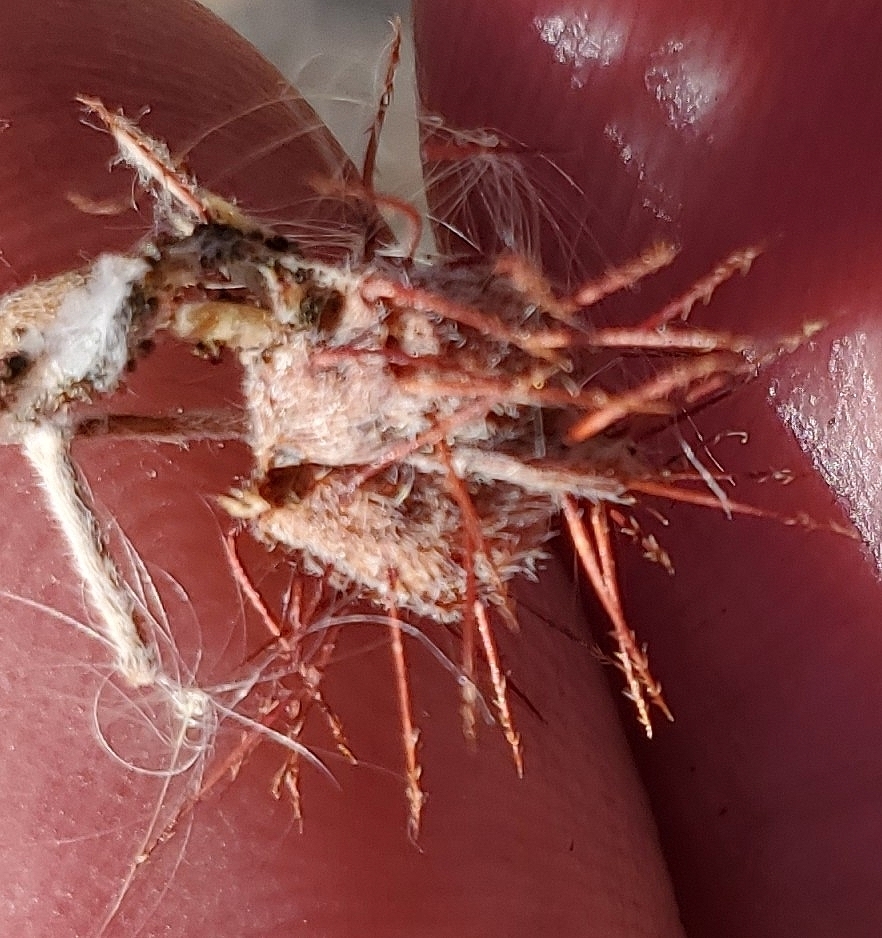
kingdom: Plantae
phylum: Tracheophyta
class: Magnoliopsida
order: Zygophyllales
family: Krameriaceae
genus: Krameria
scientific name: Krameria erecta
